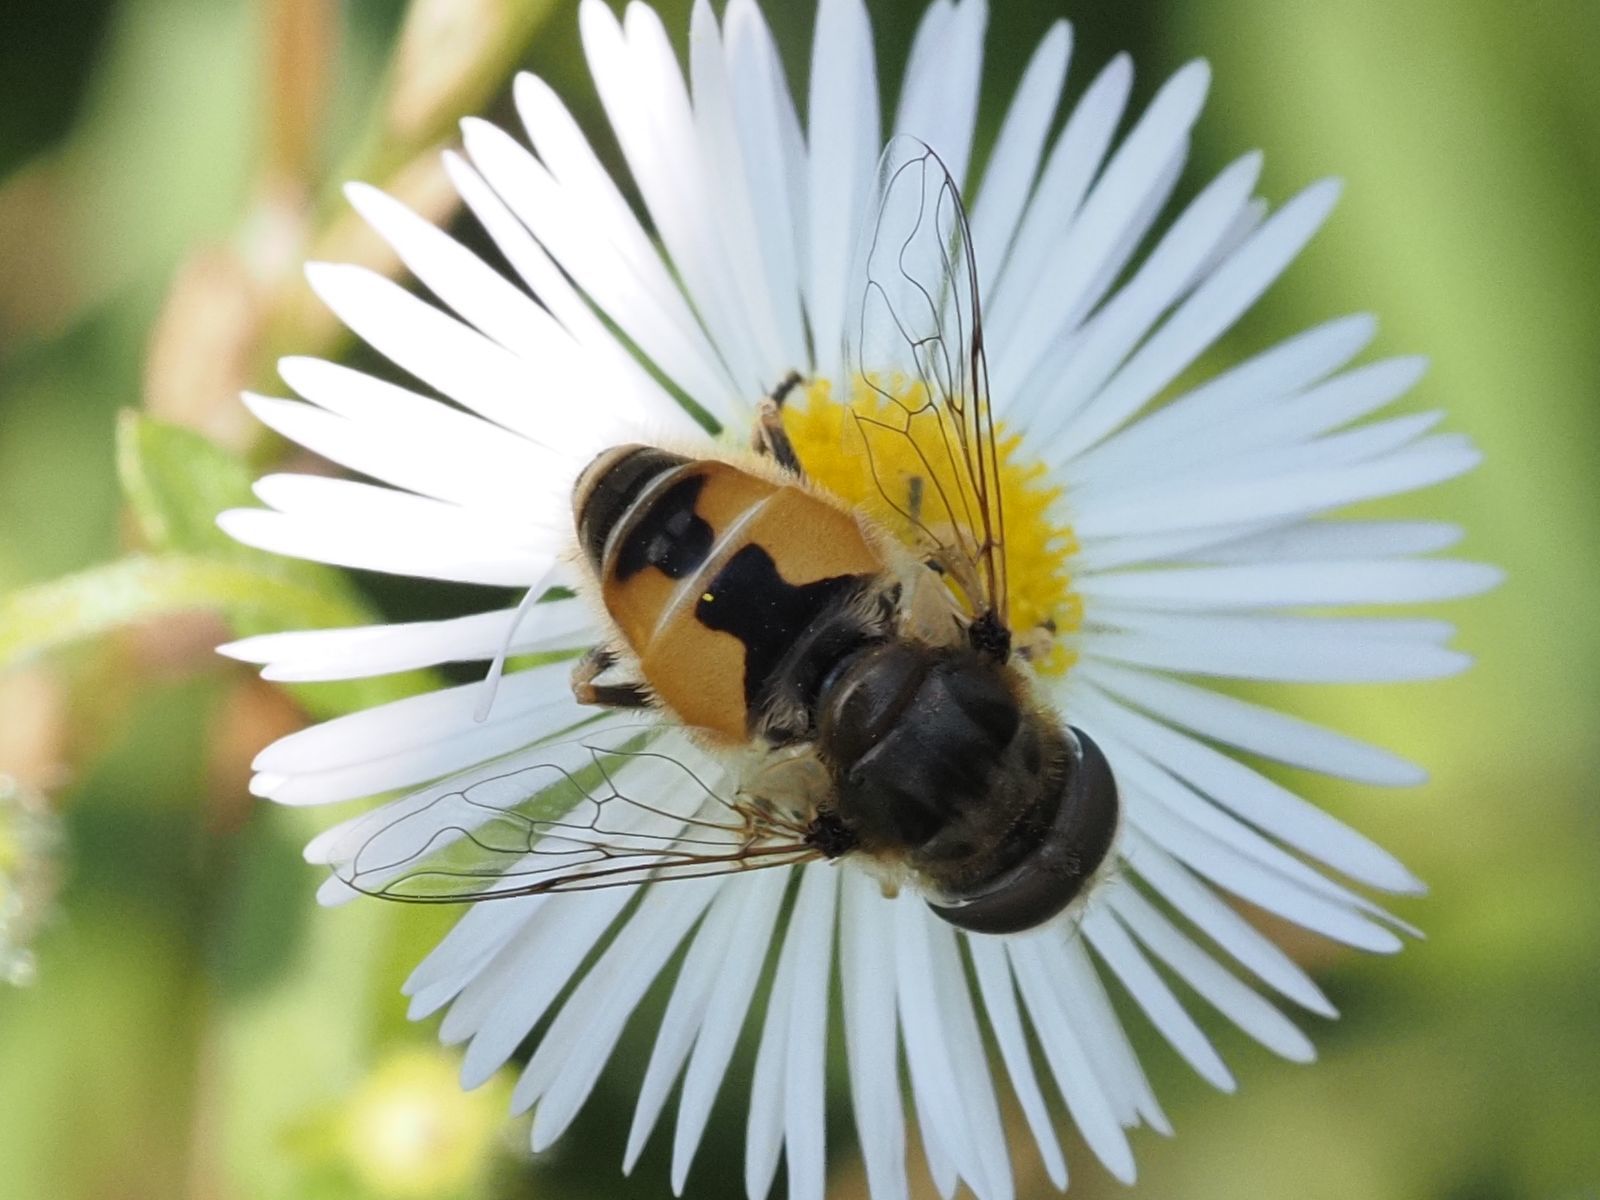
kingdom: Animalia
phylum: Arthropoda
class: Insecta
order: Diptera
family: Syrphidae
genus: Eristalis
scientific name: Eristalis arbustorum
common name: Hover fly
